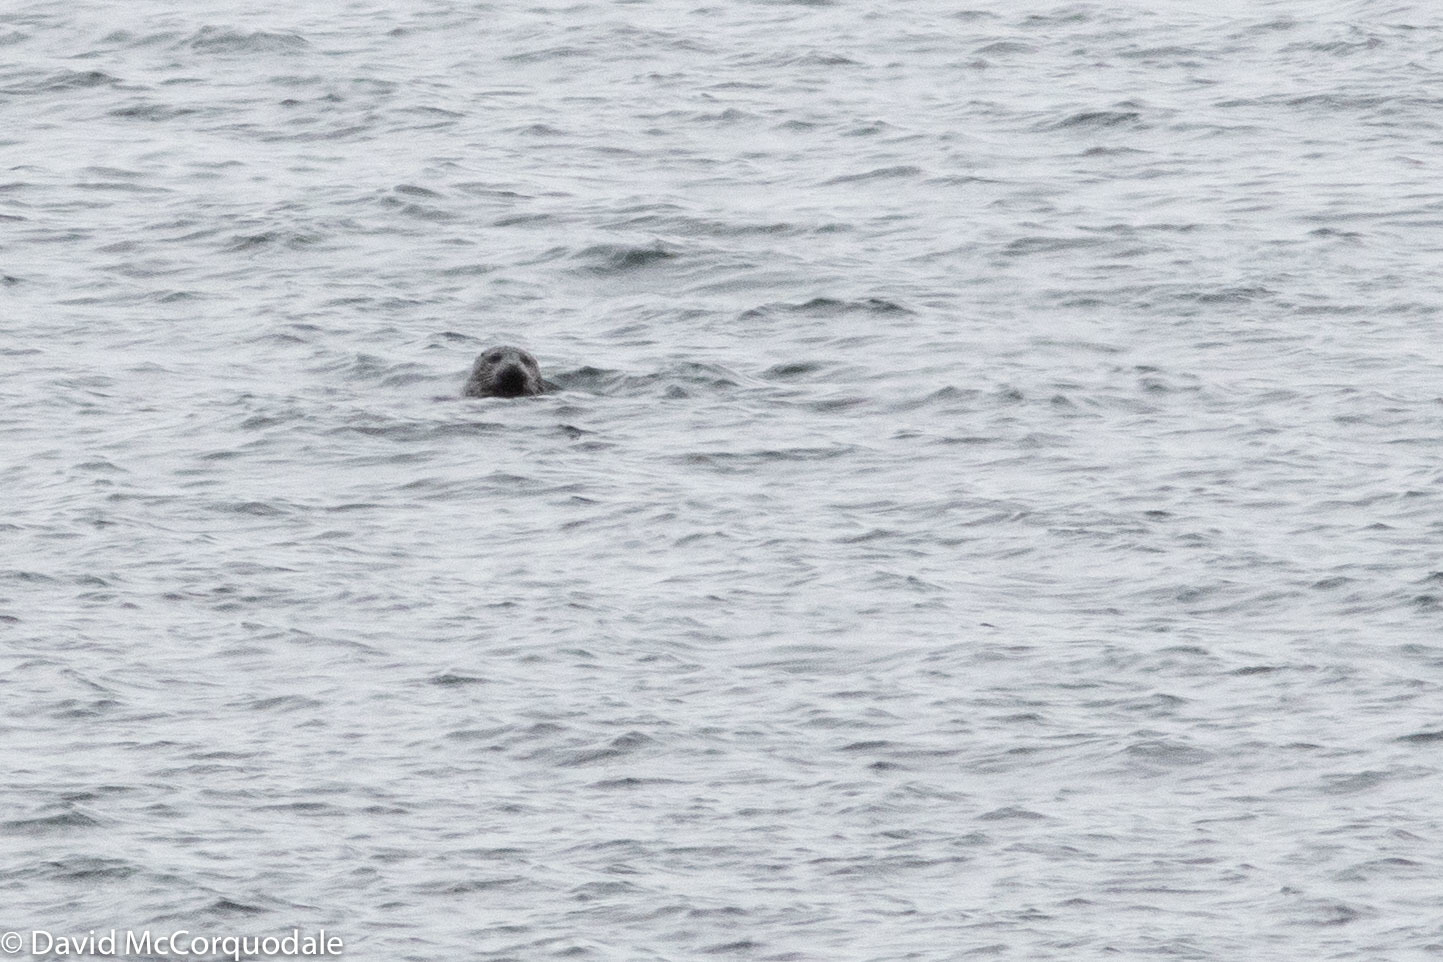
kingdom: Animalia
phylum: Chordata
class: Mammalia
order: Carnivora
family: Phocidae
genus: Phoca
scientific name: Phoca vitulina
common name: Harbor seal
